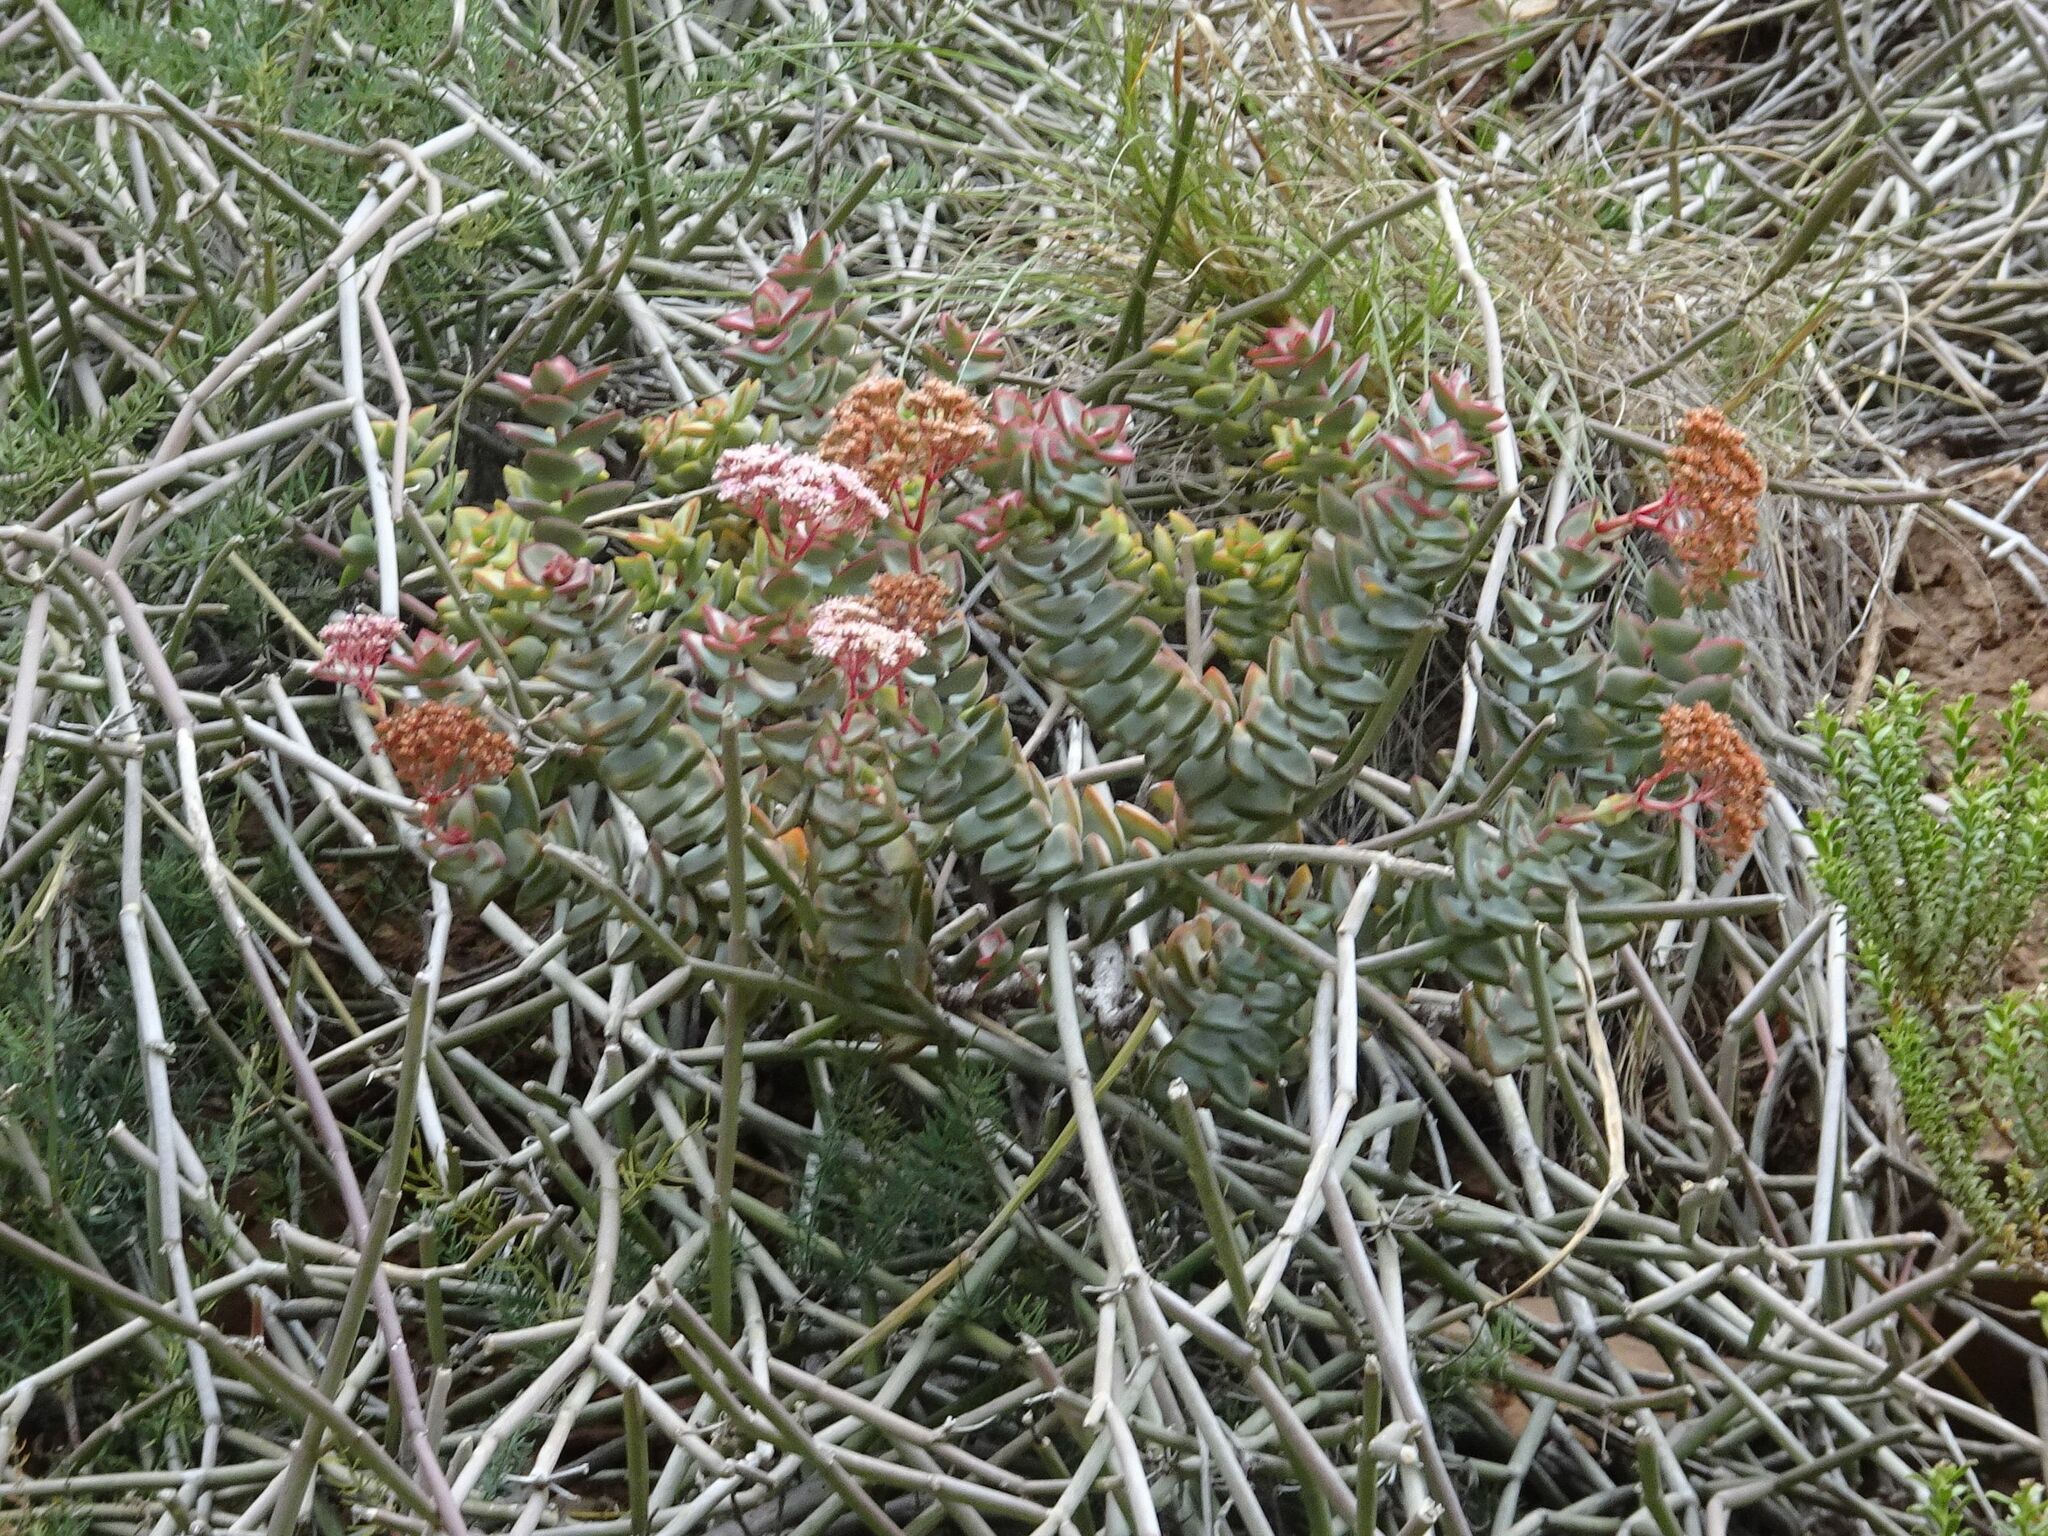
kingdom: Plantae
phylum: Tracheophyta
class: Magnoliopsida
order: Saxifragales
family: Crassulaceae
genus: Crassula
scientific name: Crassula rupestris
